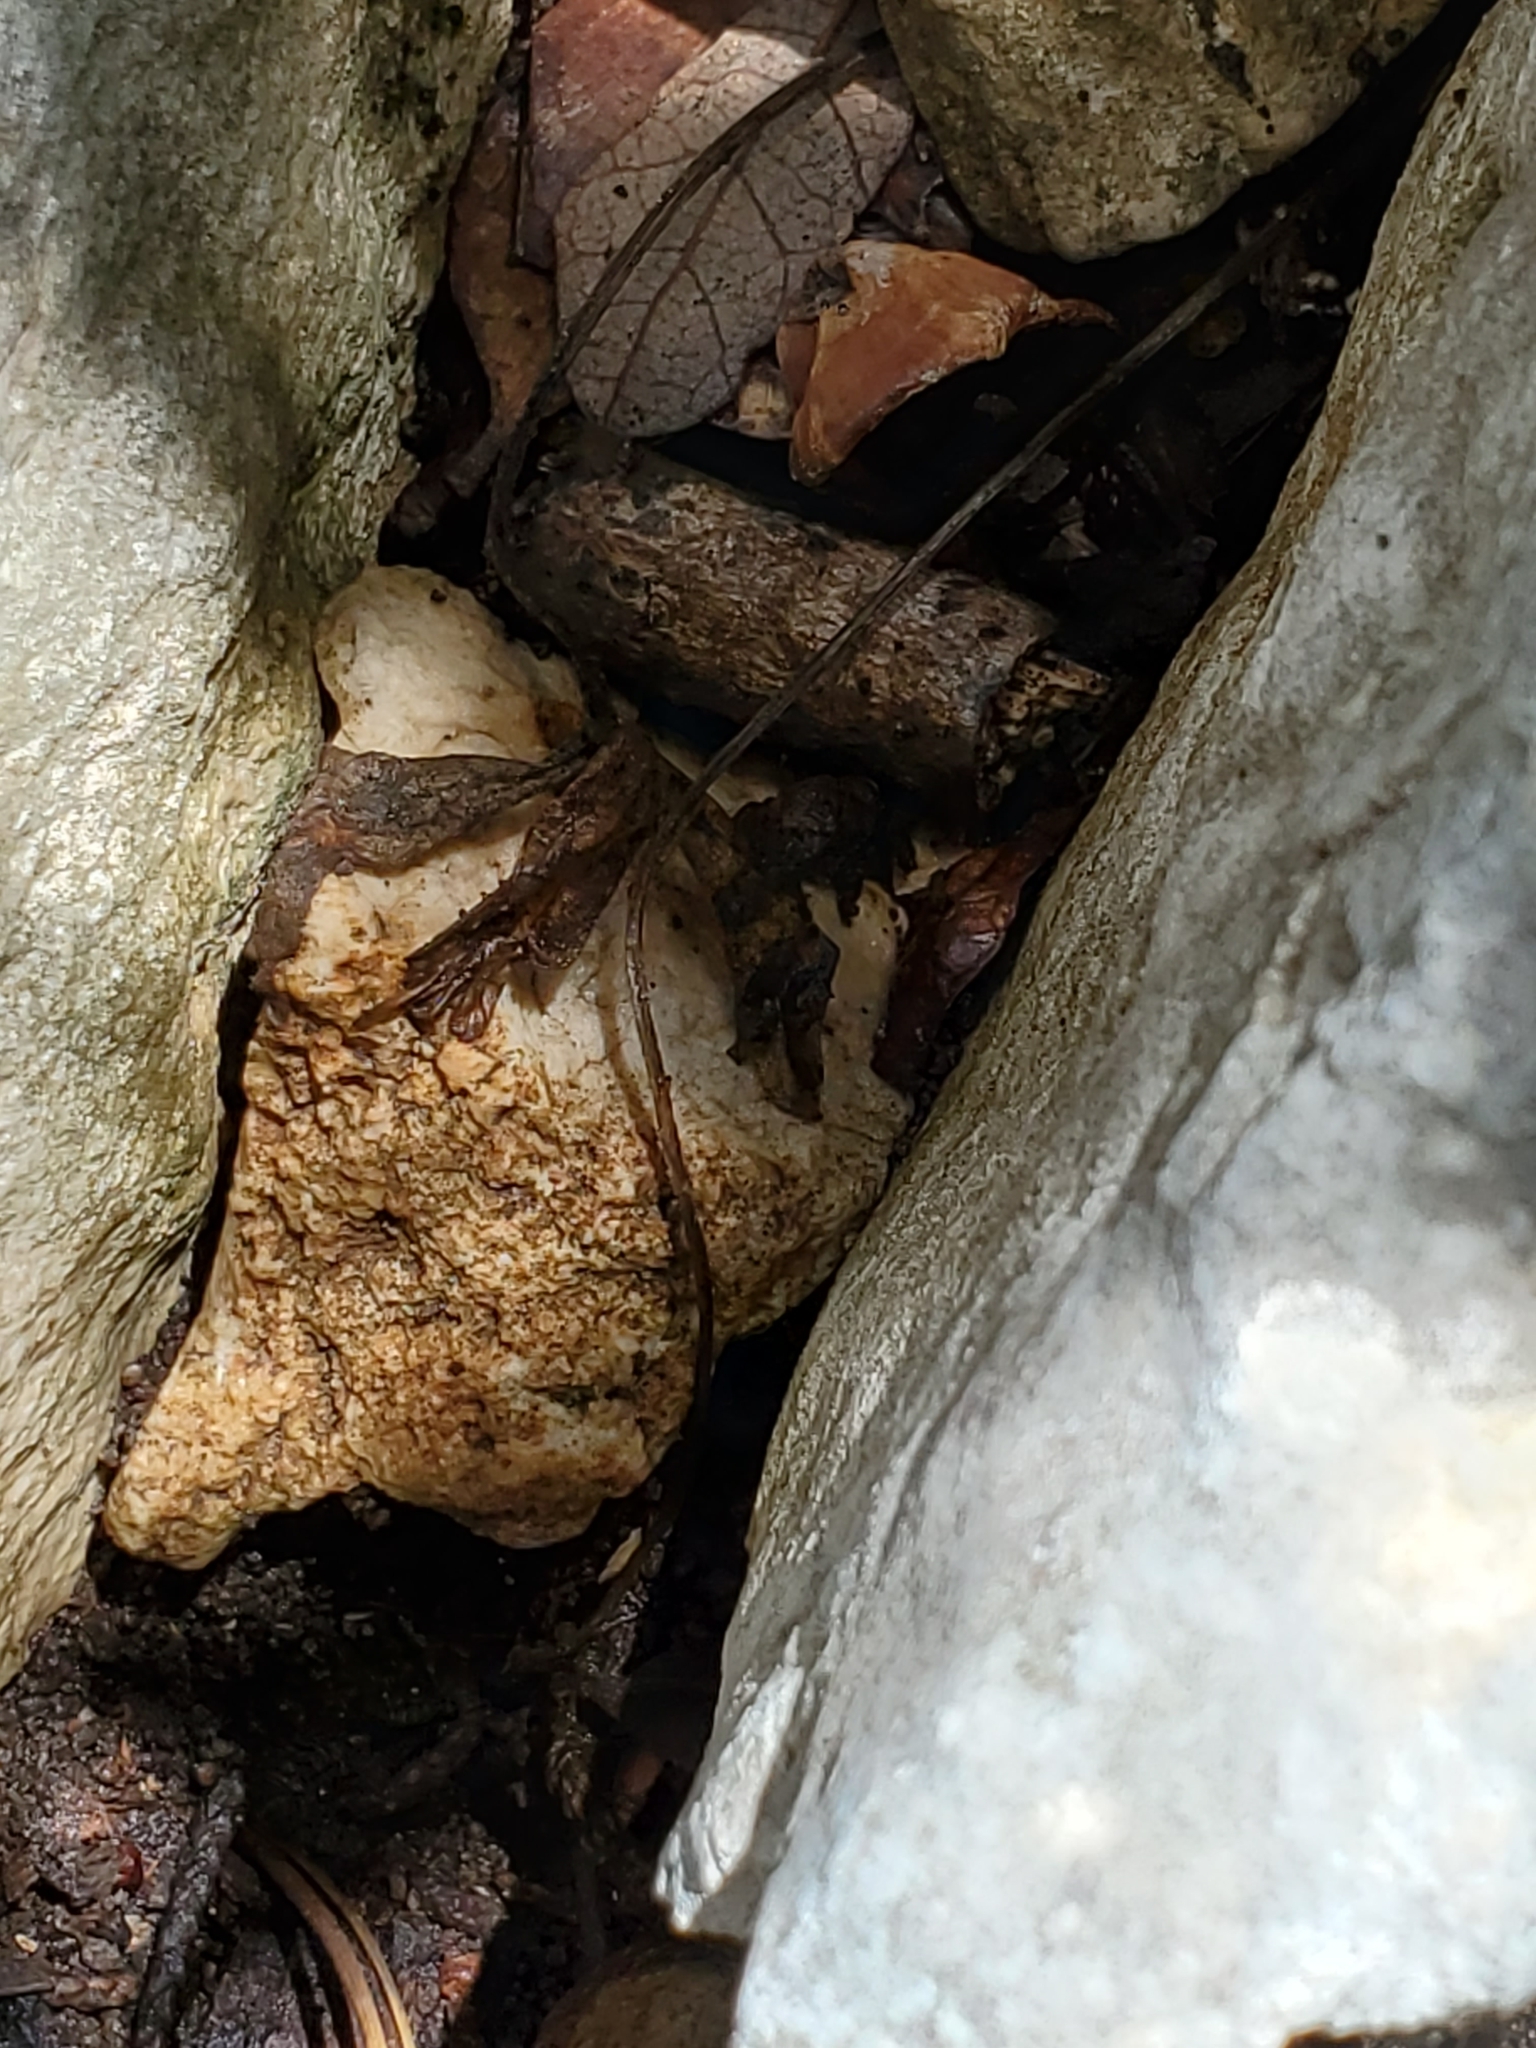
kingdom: Plantae
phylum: Tracheophyta
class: Magnoliopsida
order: Ranunculales
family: Ranunculaceae
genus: Anemone
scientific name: Anemone edwardsiana
